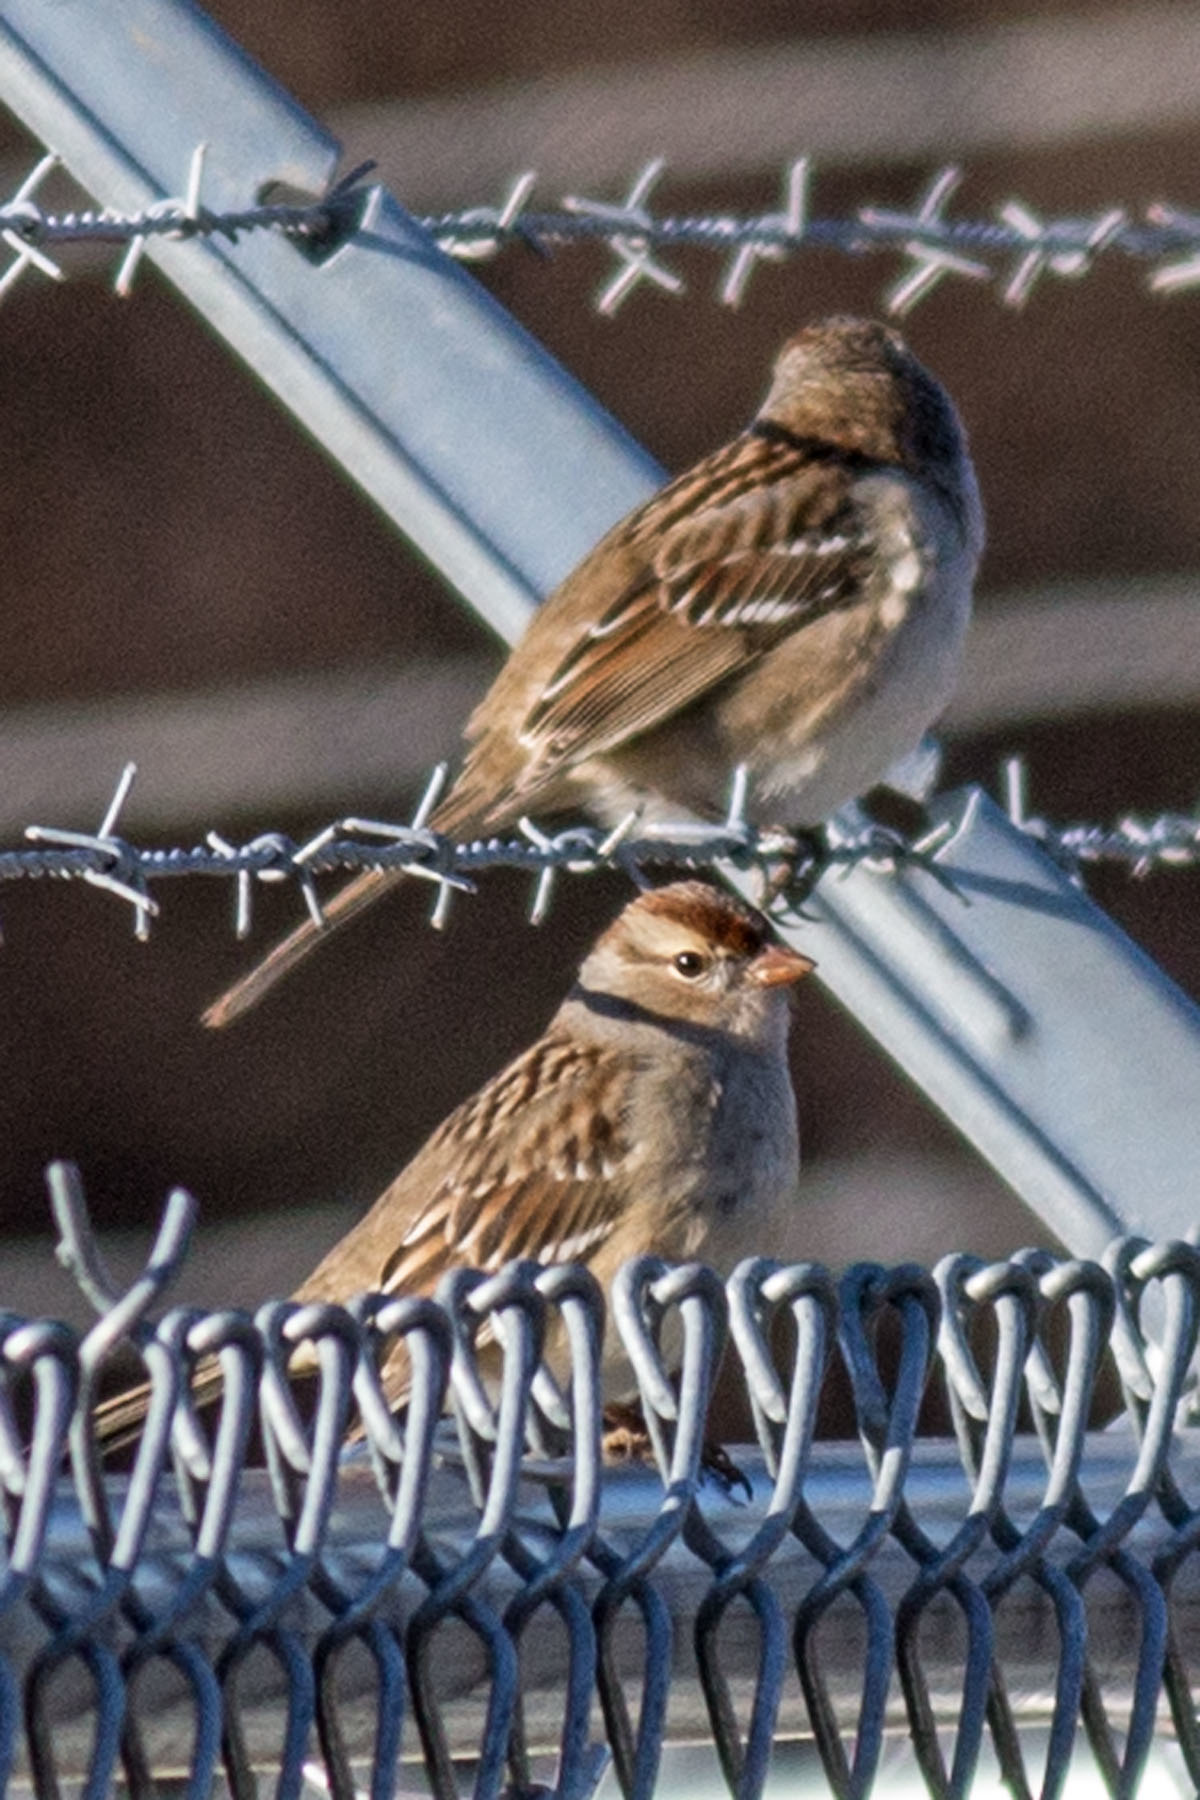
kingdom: Animalia
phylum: Chordata
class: Aves
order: Passeriformes
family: Passerellidae
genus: Zonotrichia
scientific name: Zonotrichia leucophrys
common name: White-crowned sparrow
